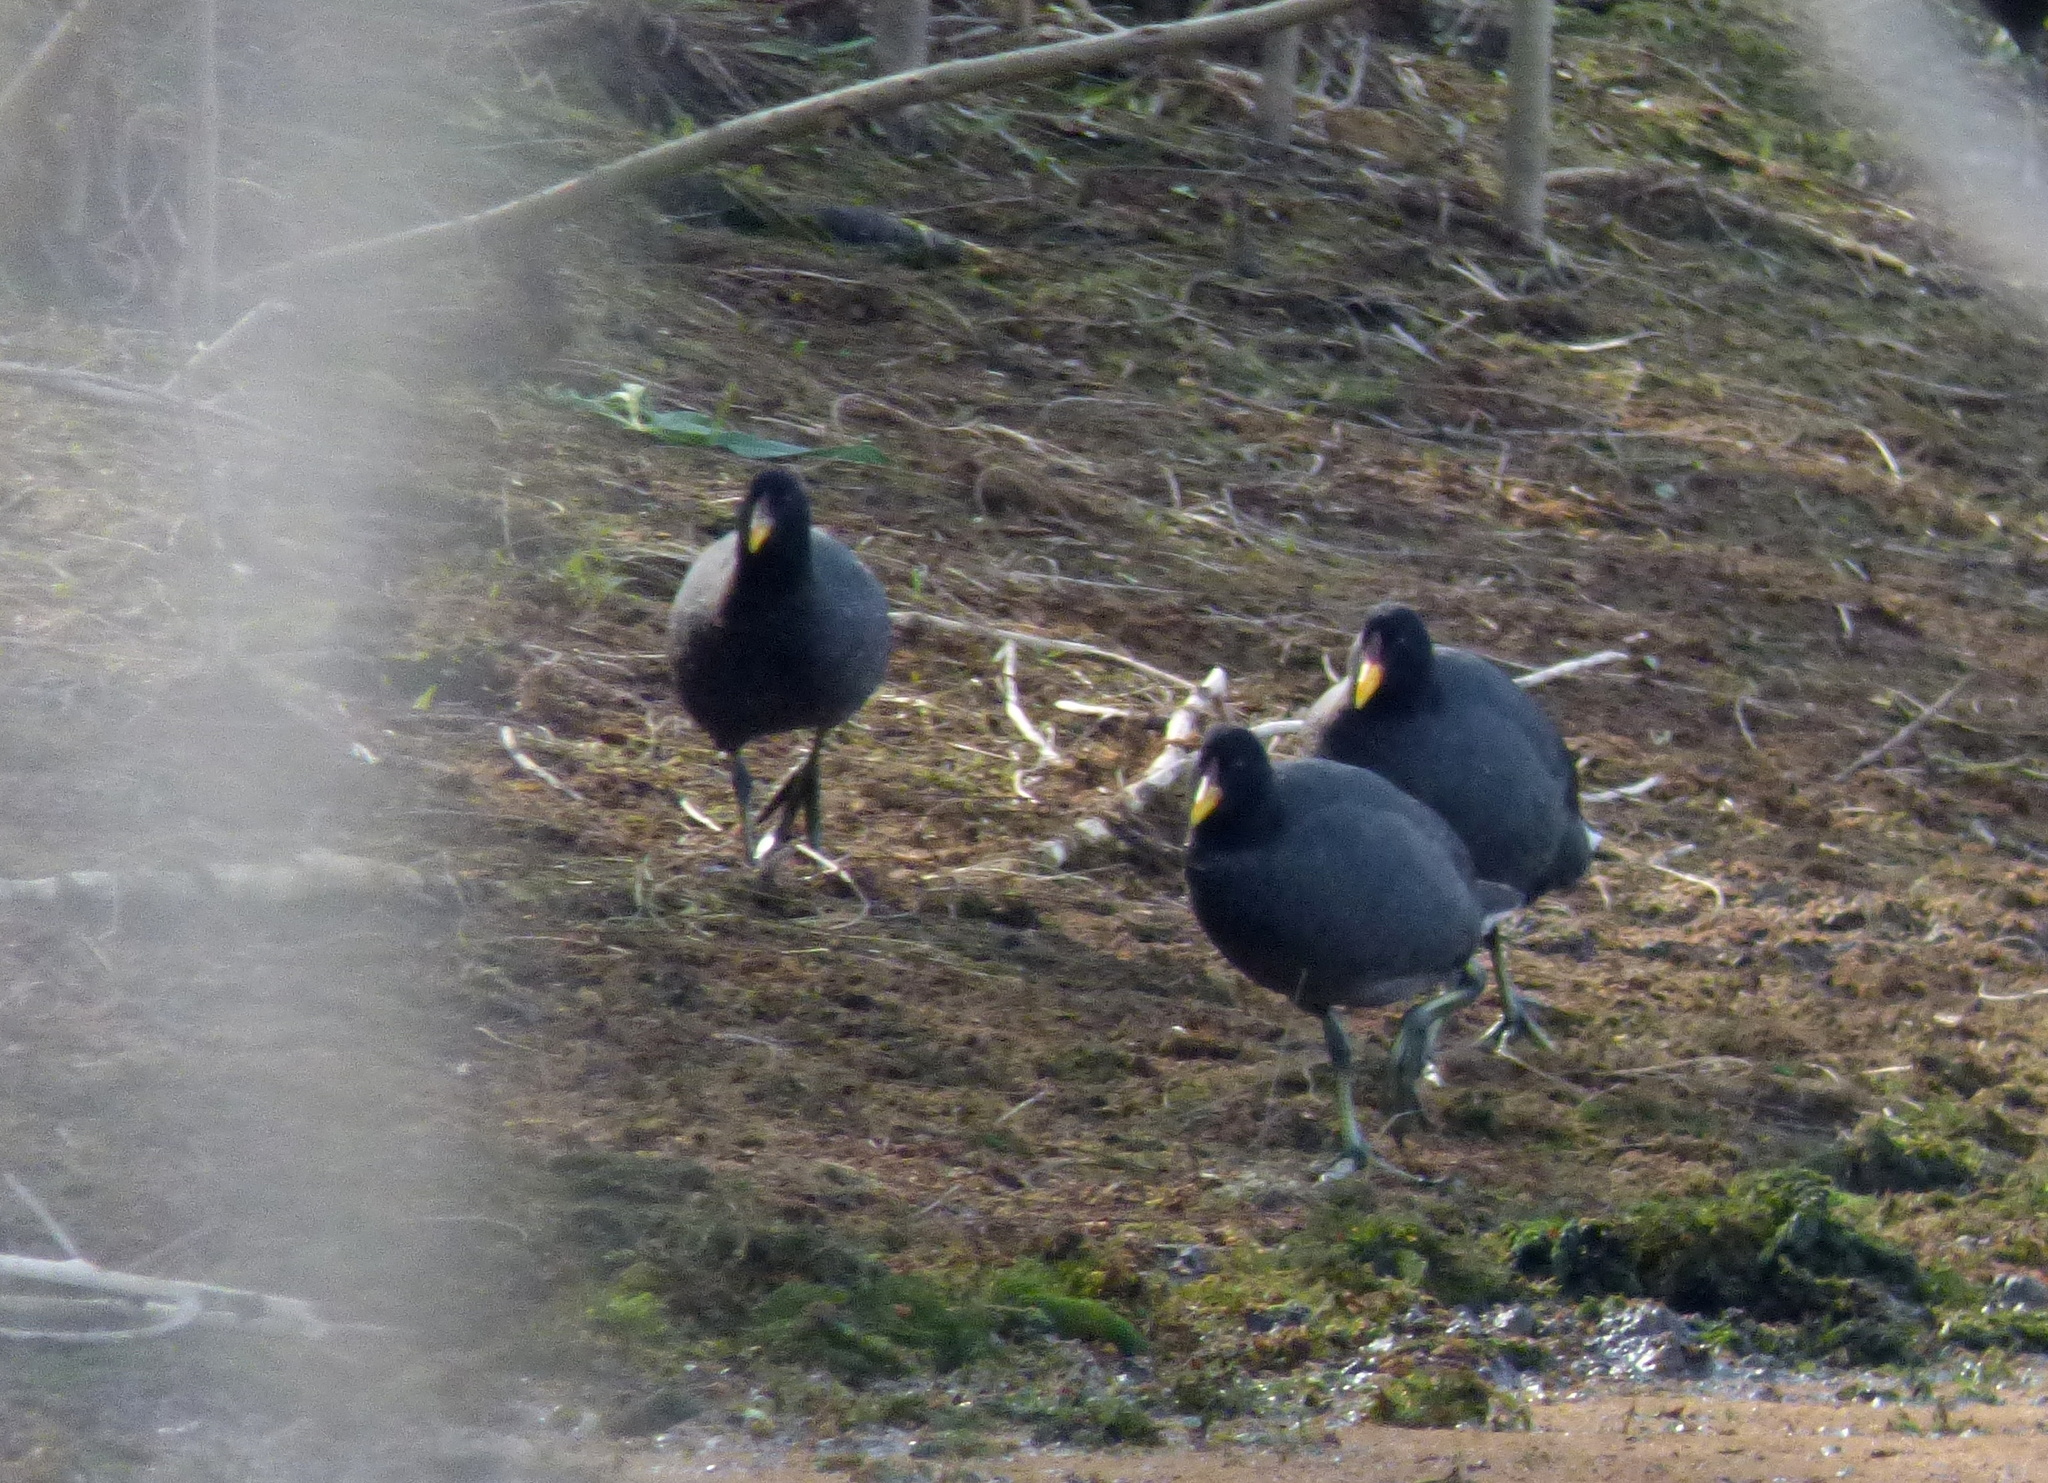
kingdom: Animalia
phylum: Chordata
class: Aves
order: Gruiformes
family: Rallidae
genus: Fulica
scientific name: Fulica rufifrons
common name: Red-fronted coot
